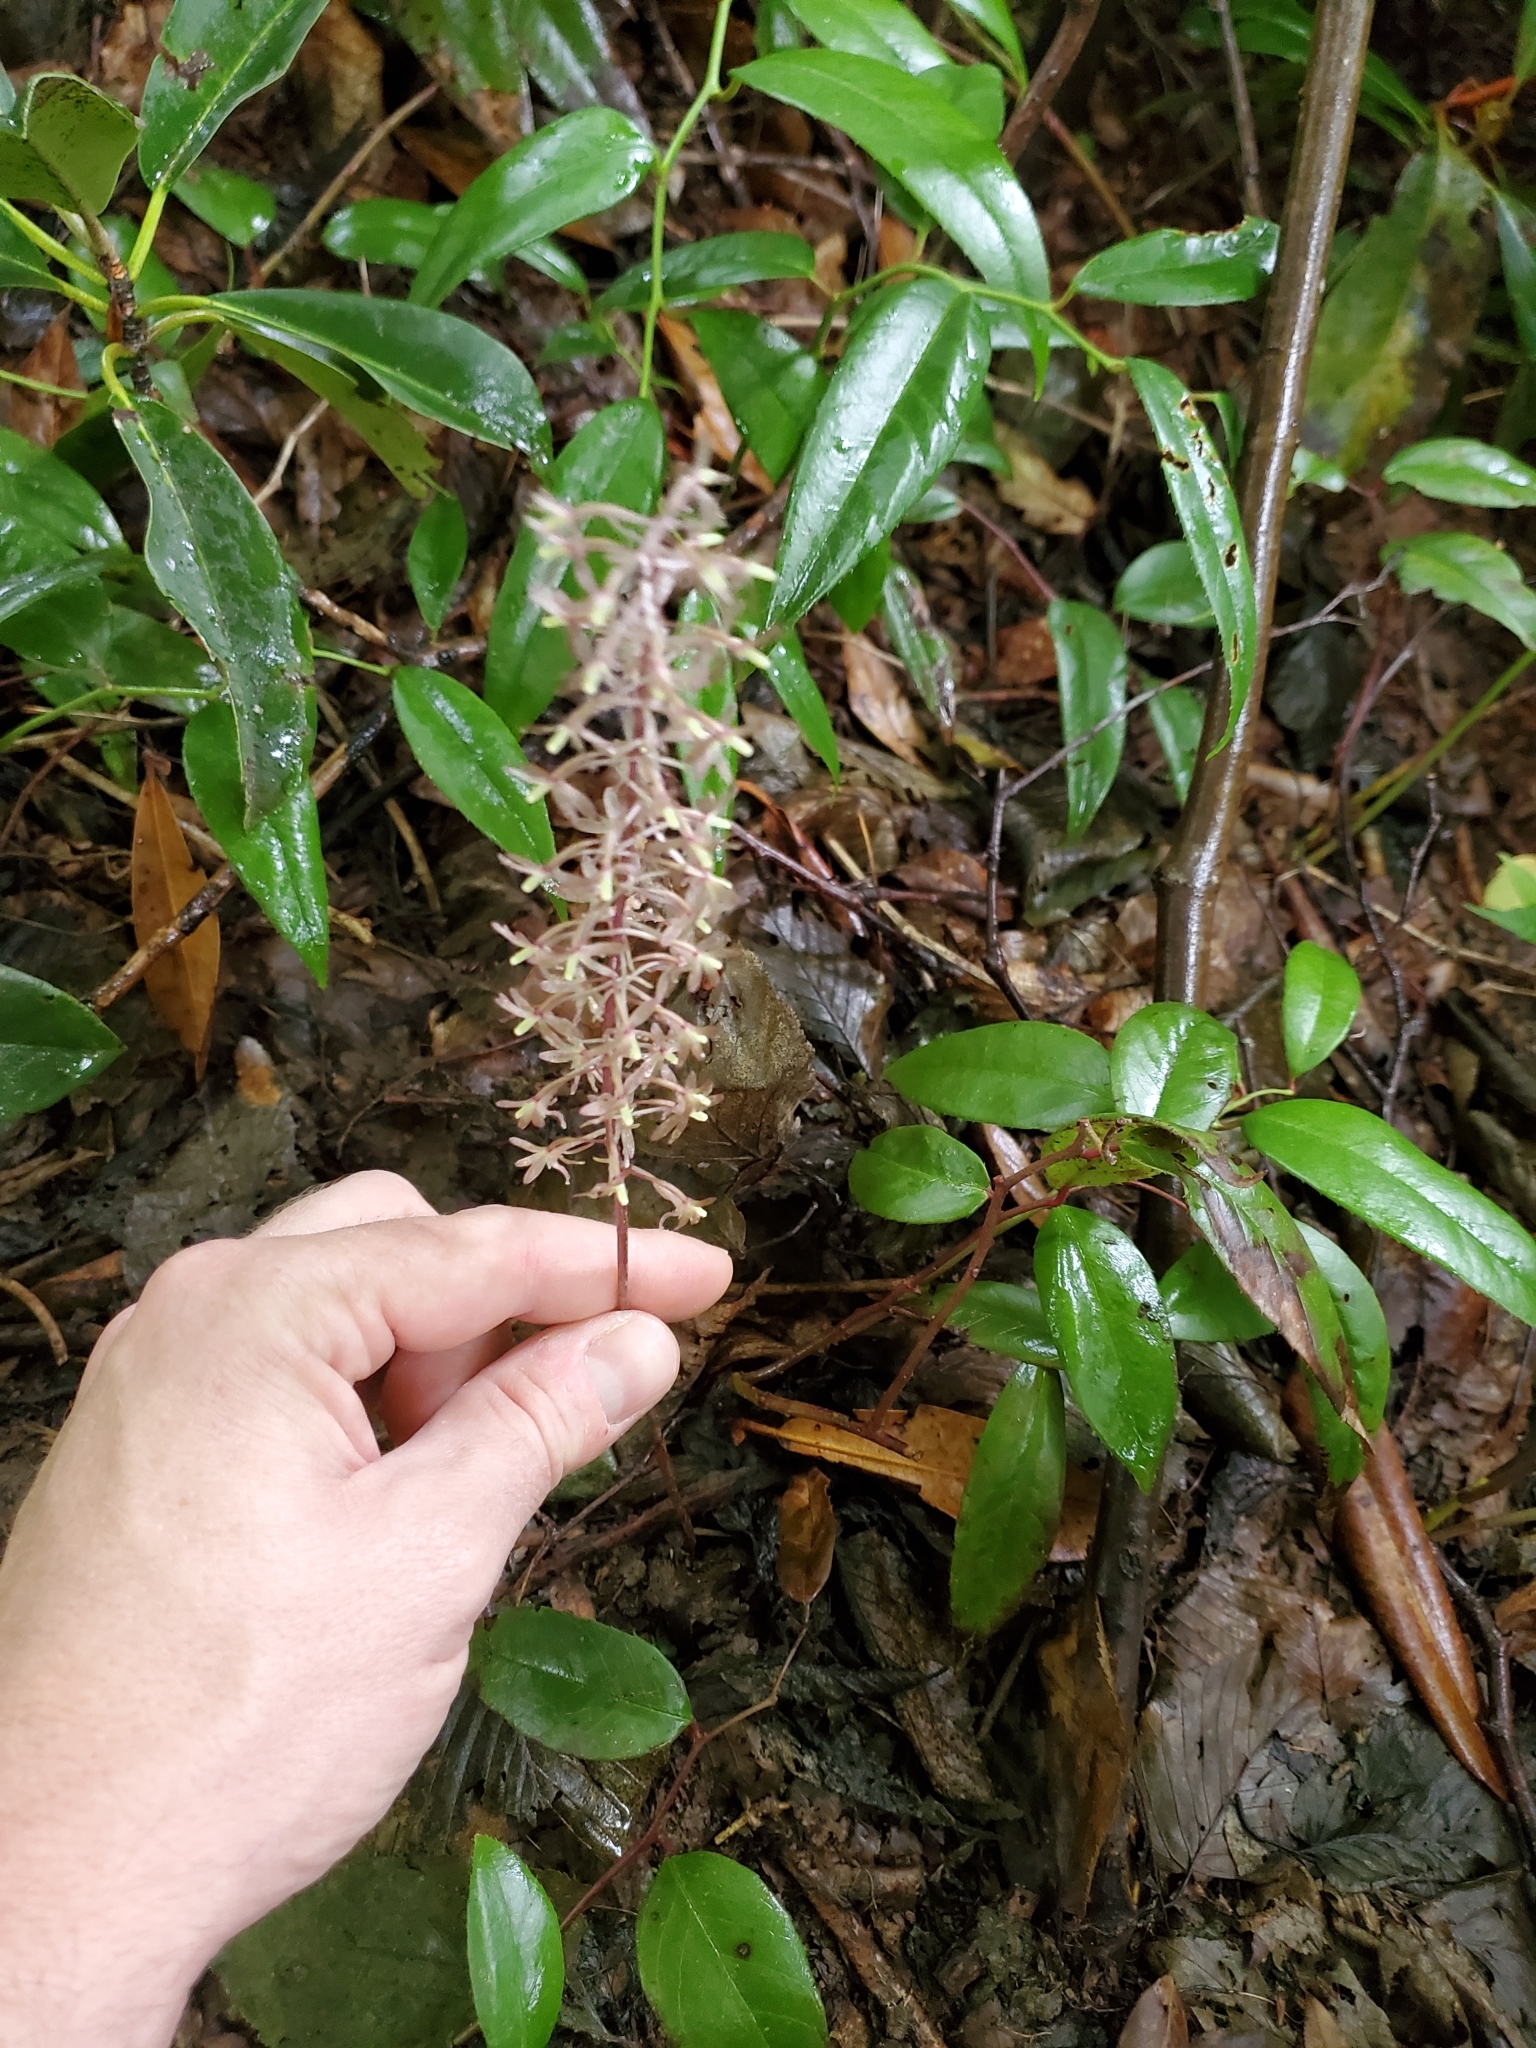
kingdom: Plantae
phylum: Tracheophyta
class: Liliopsida
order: Asparagales
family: Orchidaceae
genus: Tipularia
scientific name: Tipularia discolor
